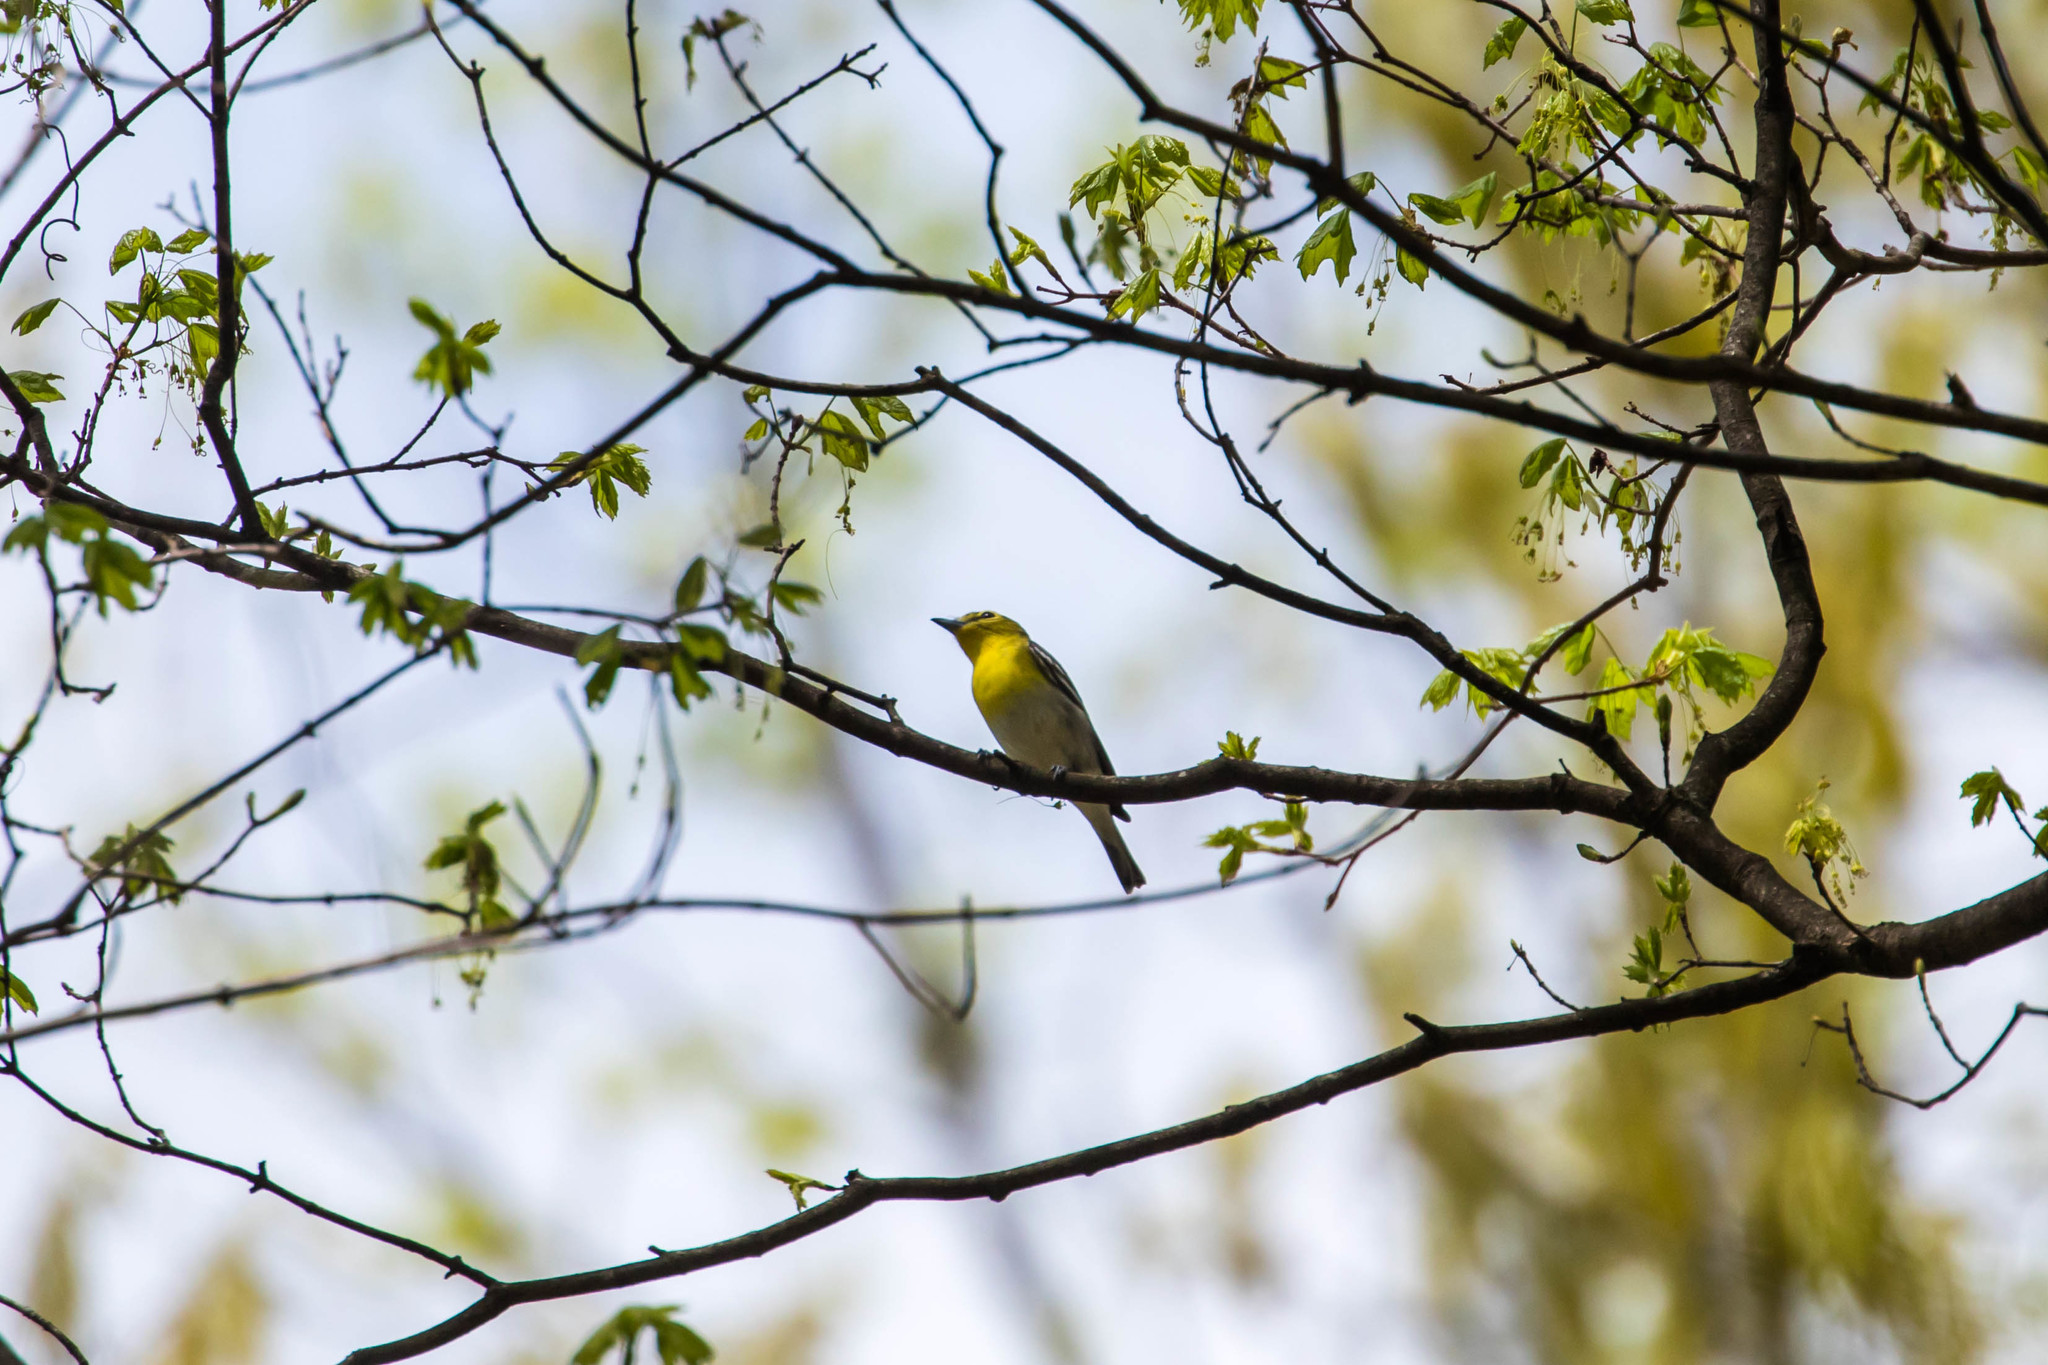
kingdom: Animalia
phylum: Chordata
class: Aves
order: Passeriformes
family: Vireonidae
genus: Vireo
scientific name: Vireo flavifrons
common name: Yellow-throated vireo
